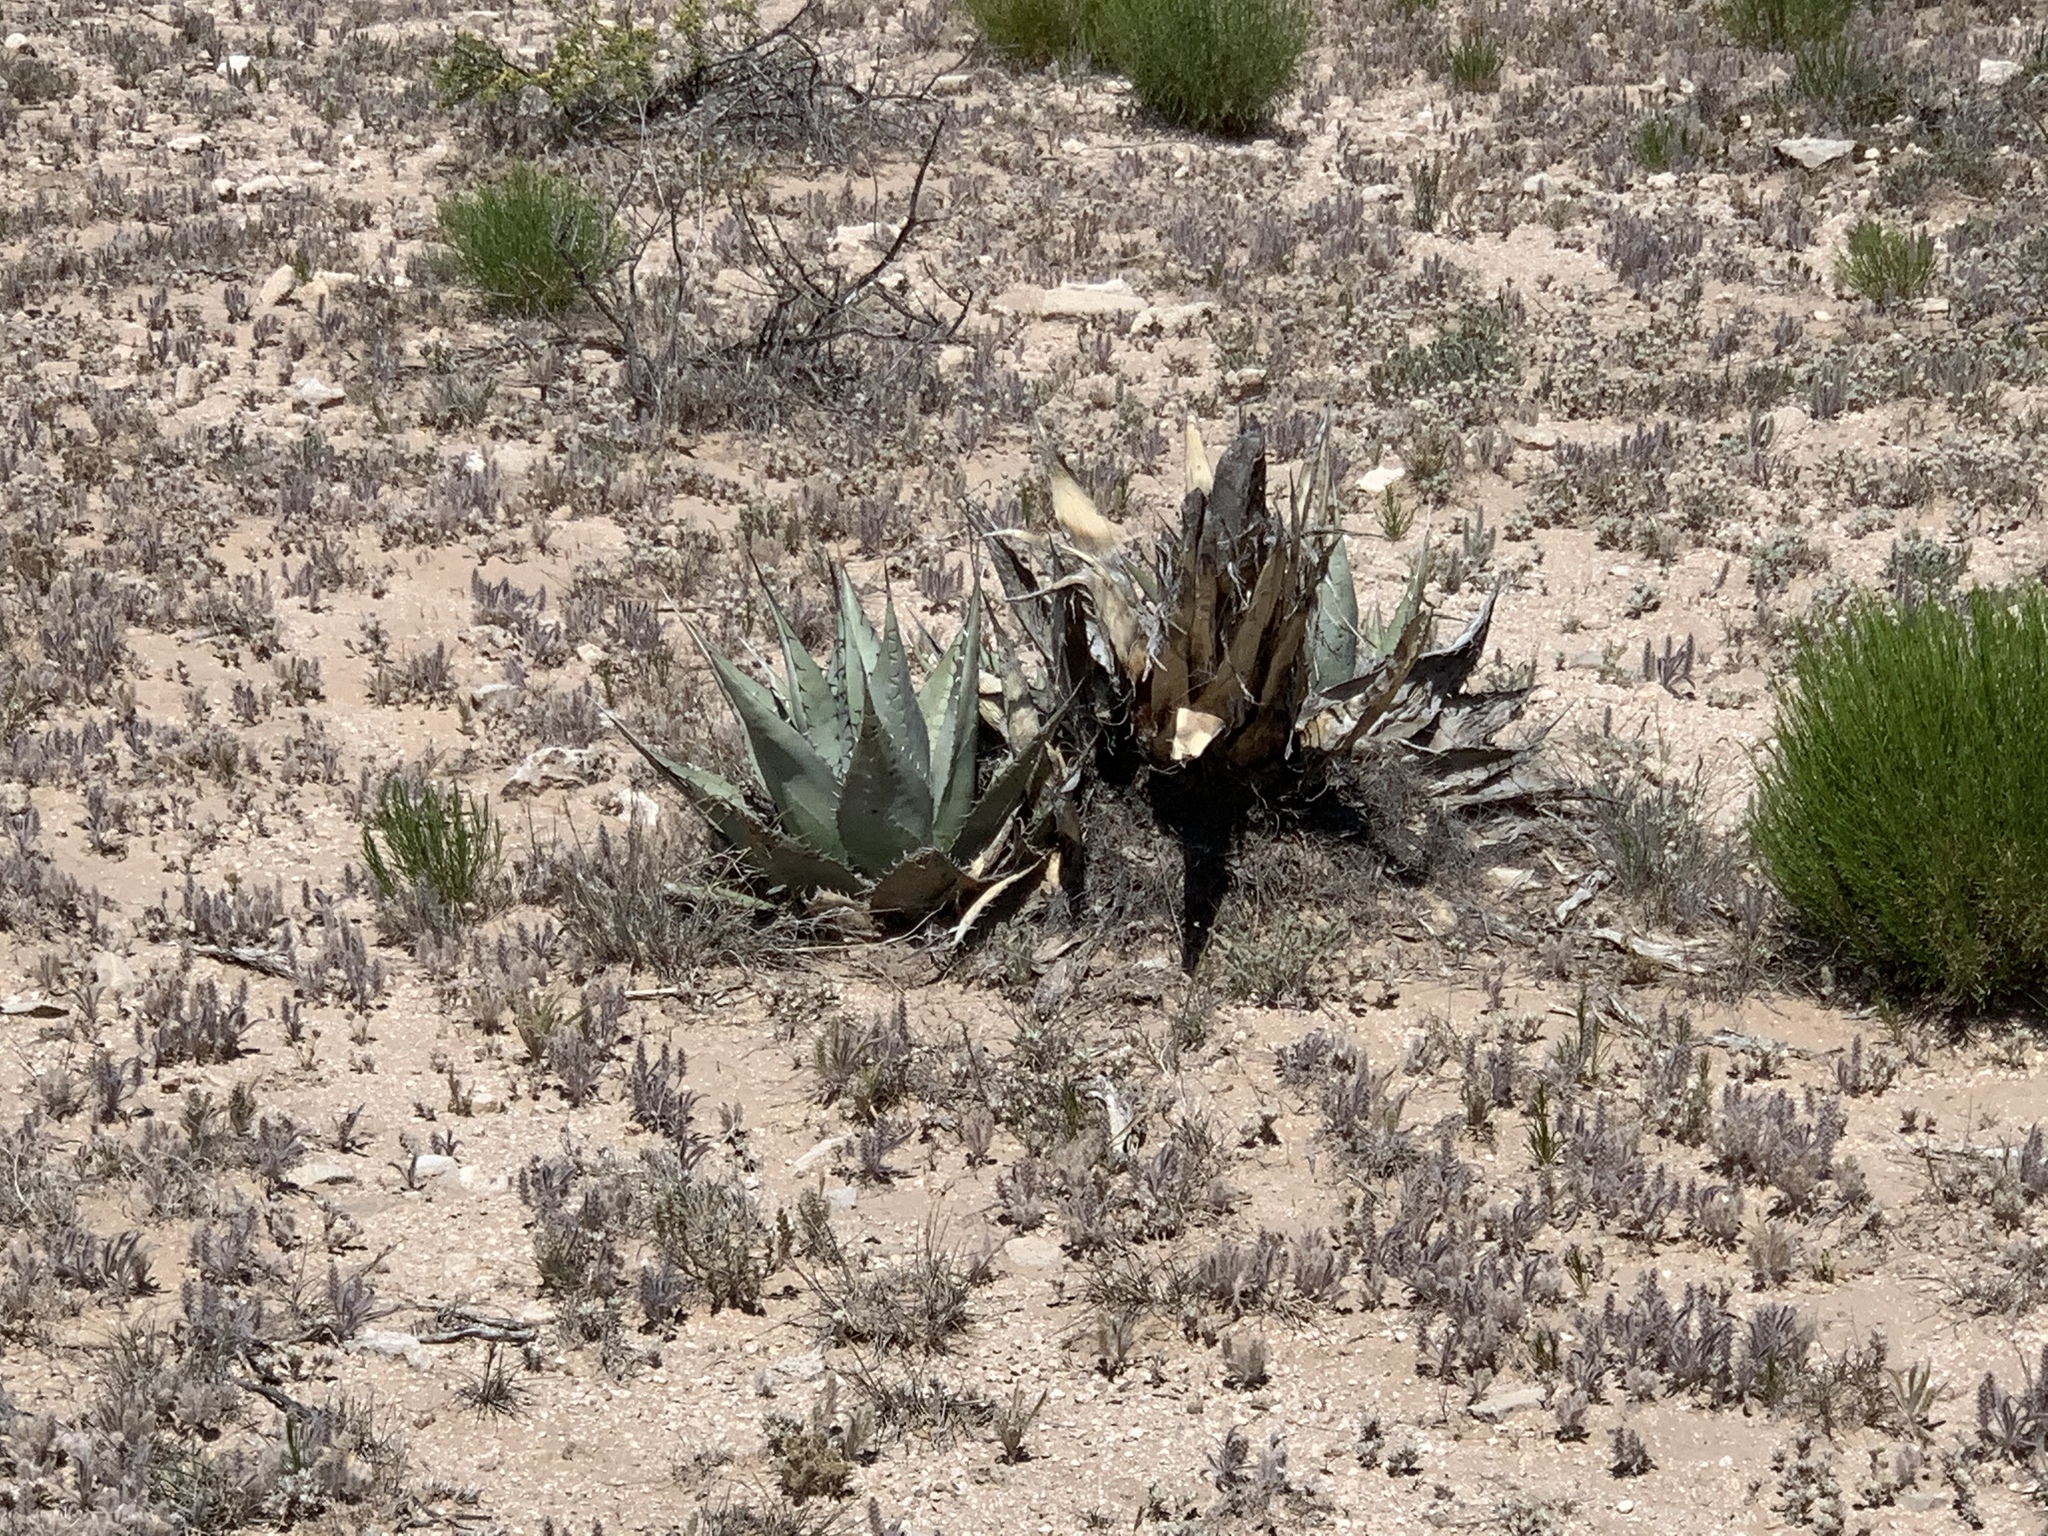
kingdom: Plantae
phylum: Tracheophyta
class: Liliopsida
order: Asparagales
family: Asparagaceae
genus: Agave
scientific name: Agave parryi
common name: Parry's agave
